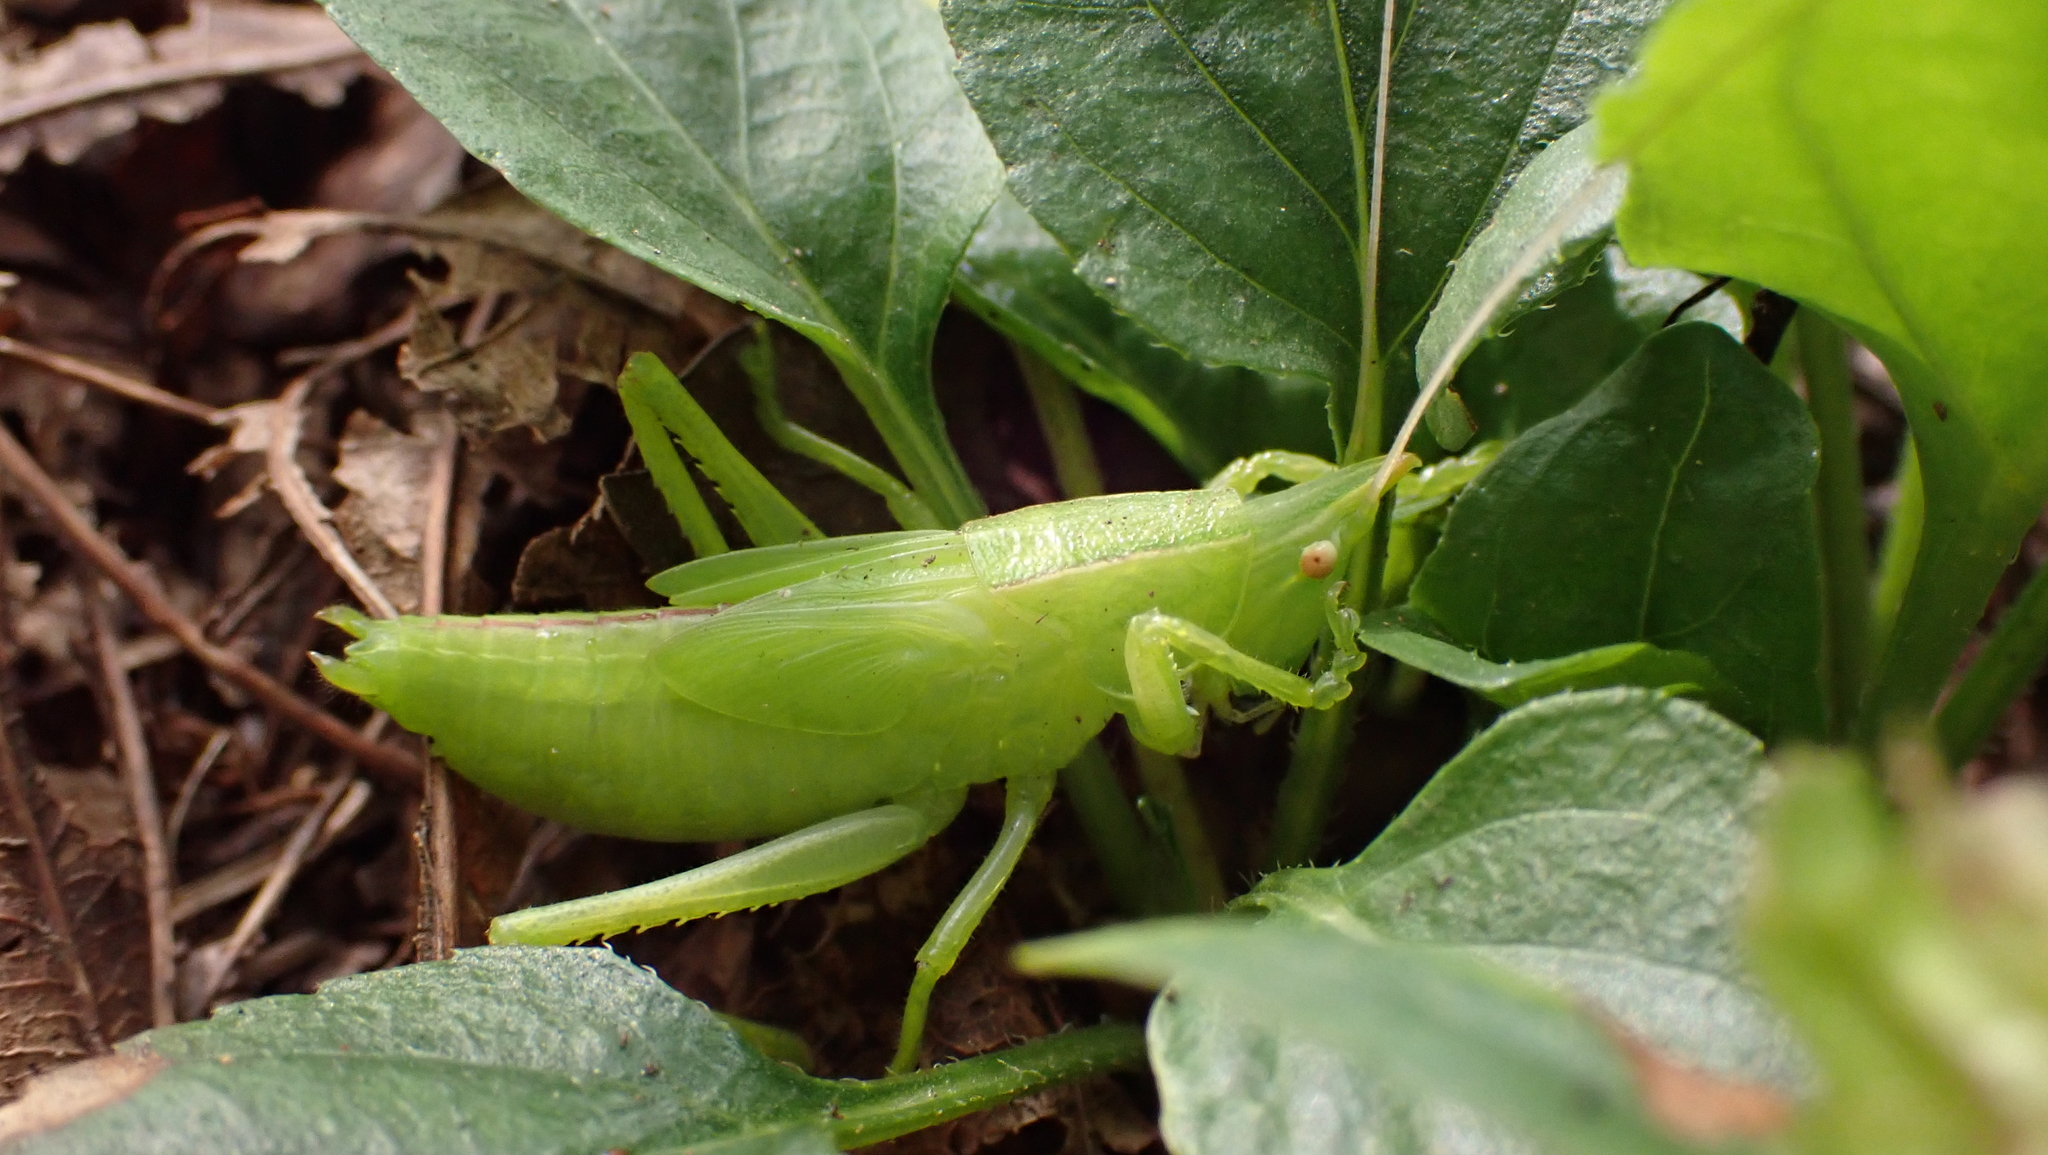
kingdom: Animalia
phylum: Arthropoda
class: Insecta
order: Orthoptera
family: Tettigoniidae
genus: Pyrgocorypha
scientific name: Pyrgocorypha uncinata
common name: Hook-faced conehead
